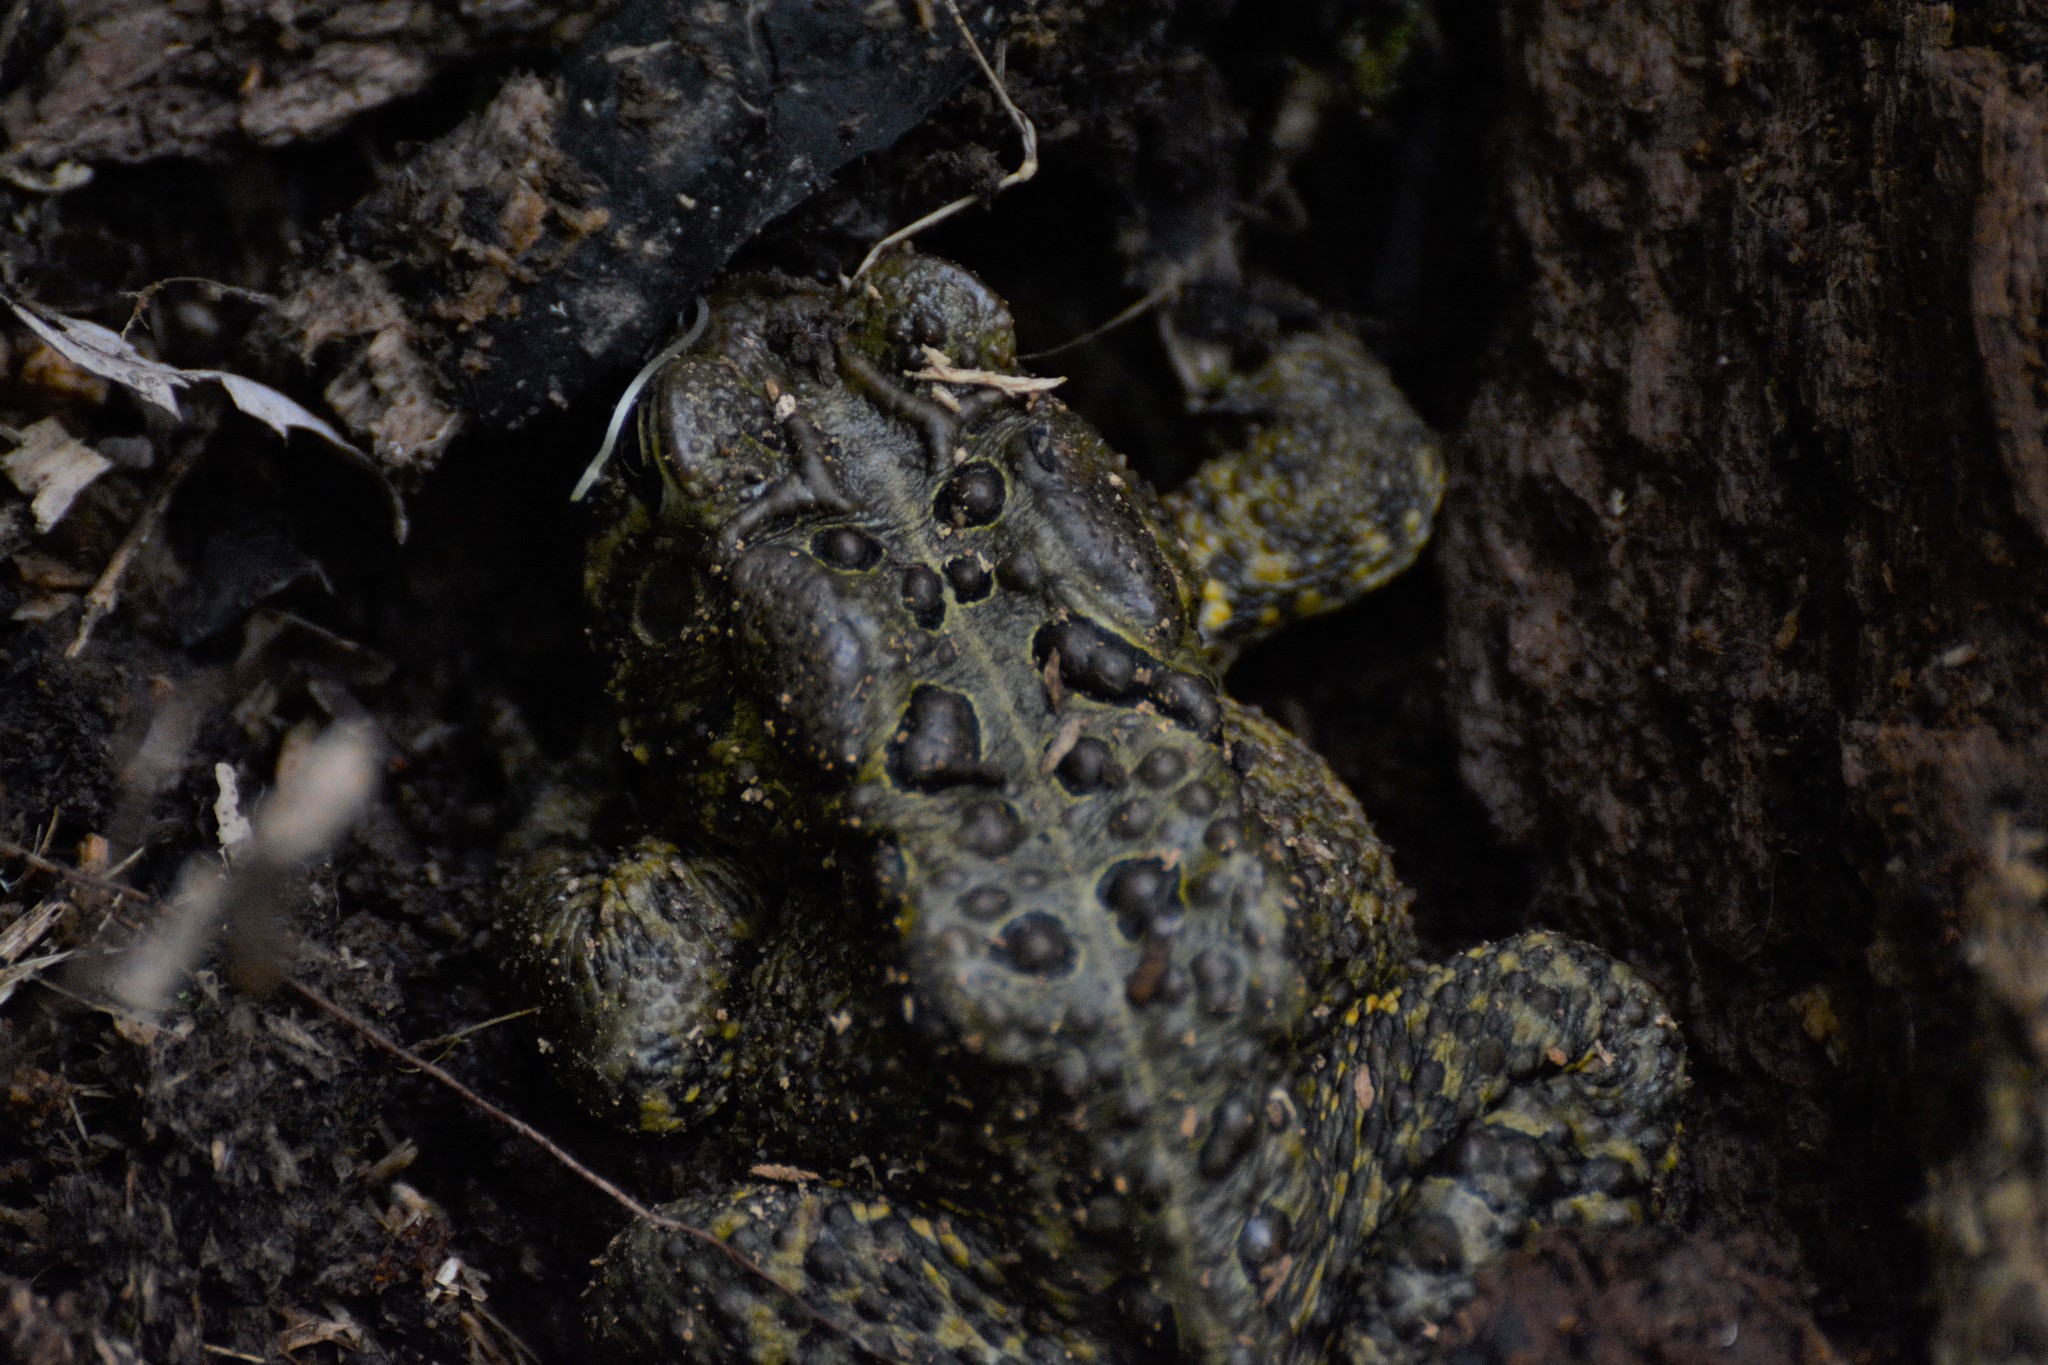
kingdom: Animalia
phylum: Chordata
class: Amphibia
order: Anura
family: Bufonidae
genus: Anaxyrus
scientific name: Anaxyrus americanus
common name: American toad
